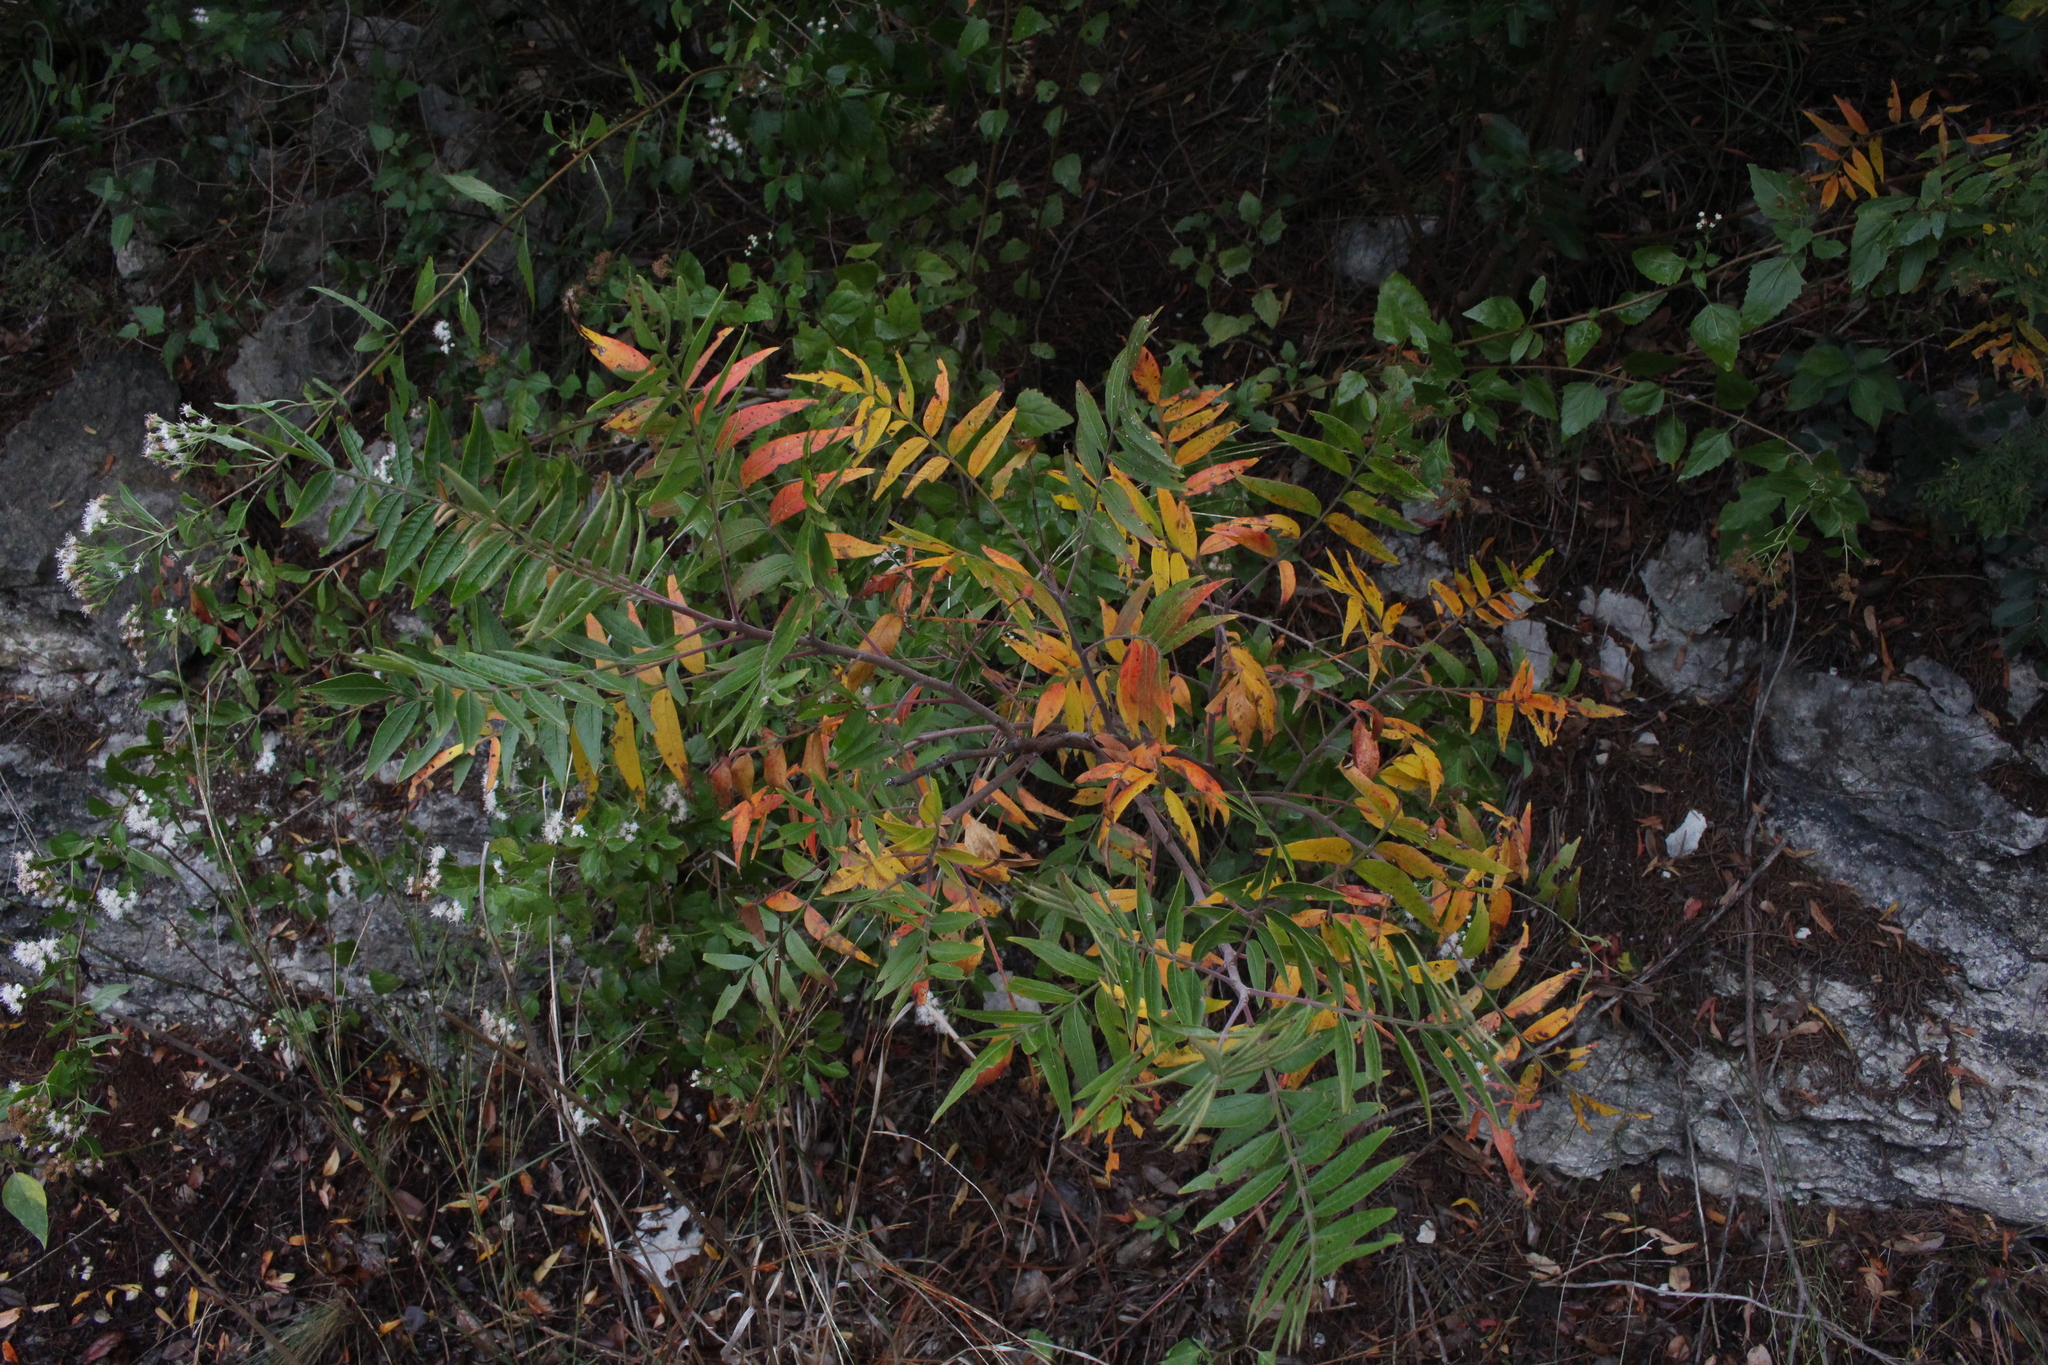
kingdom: Plantae
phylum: Tracheophyta
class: Magnoliopsida
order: Sapindales
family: Anacardiaceae
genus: Rhus
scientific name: Rhus lanceolata
